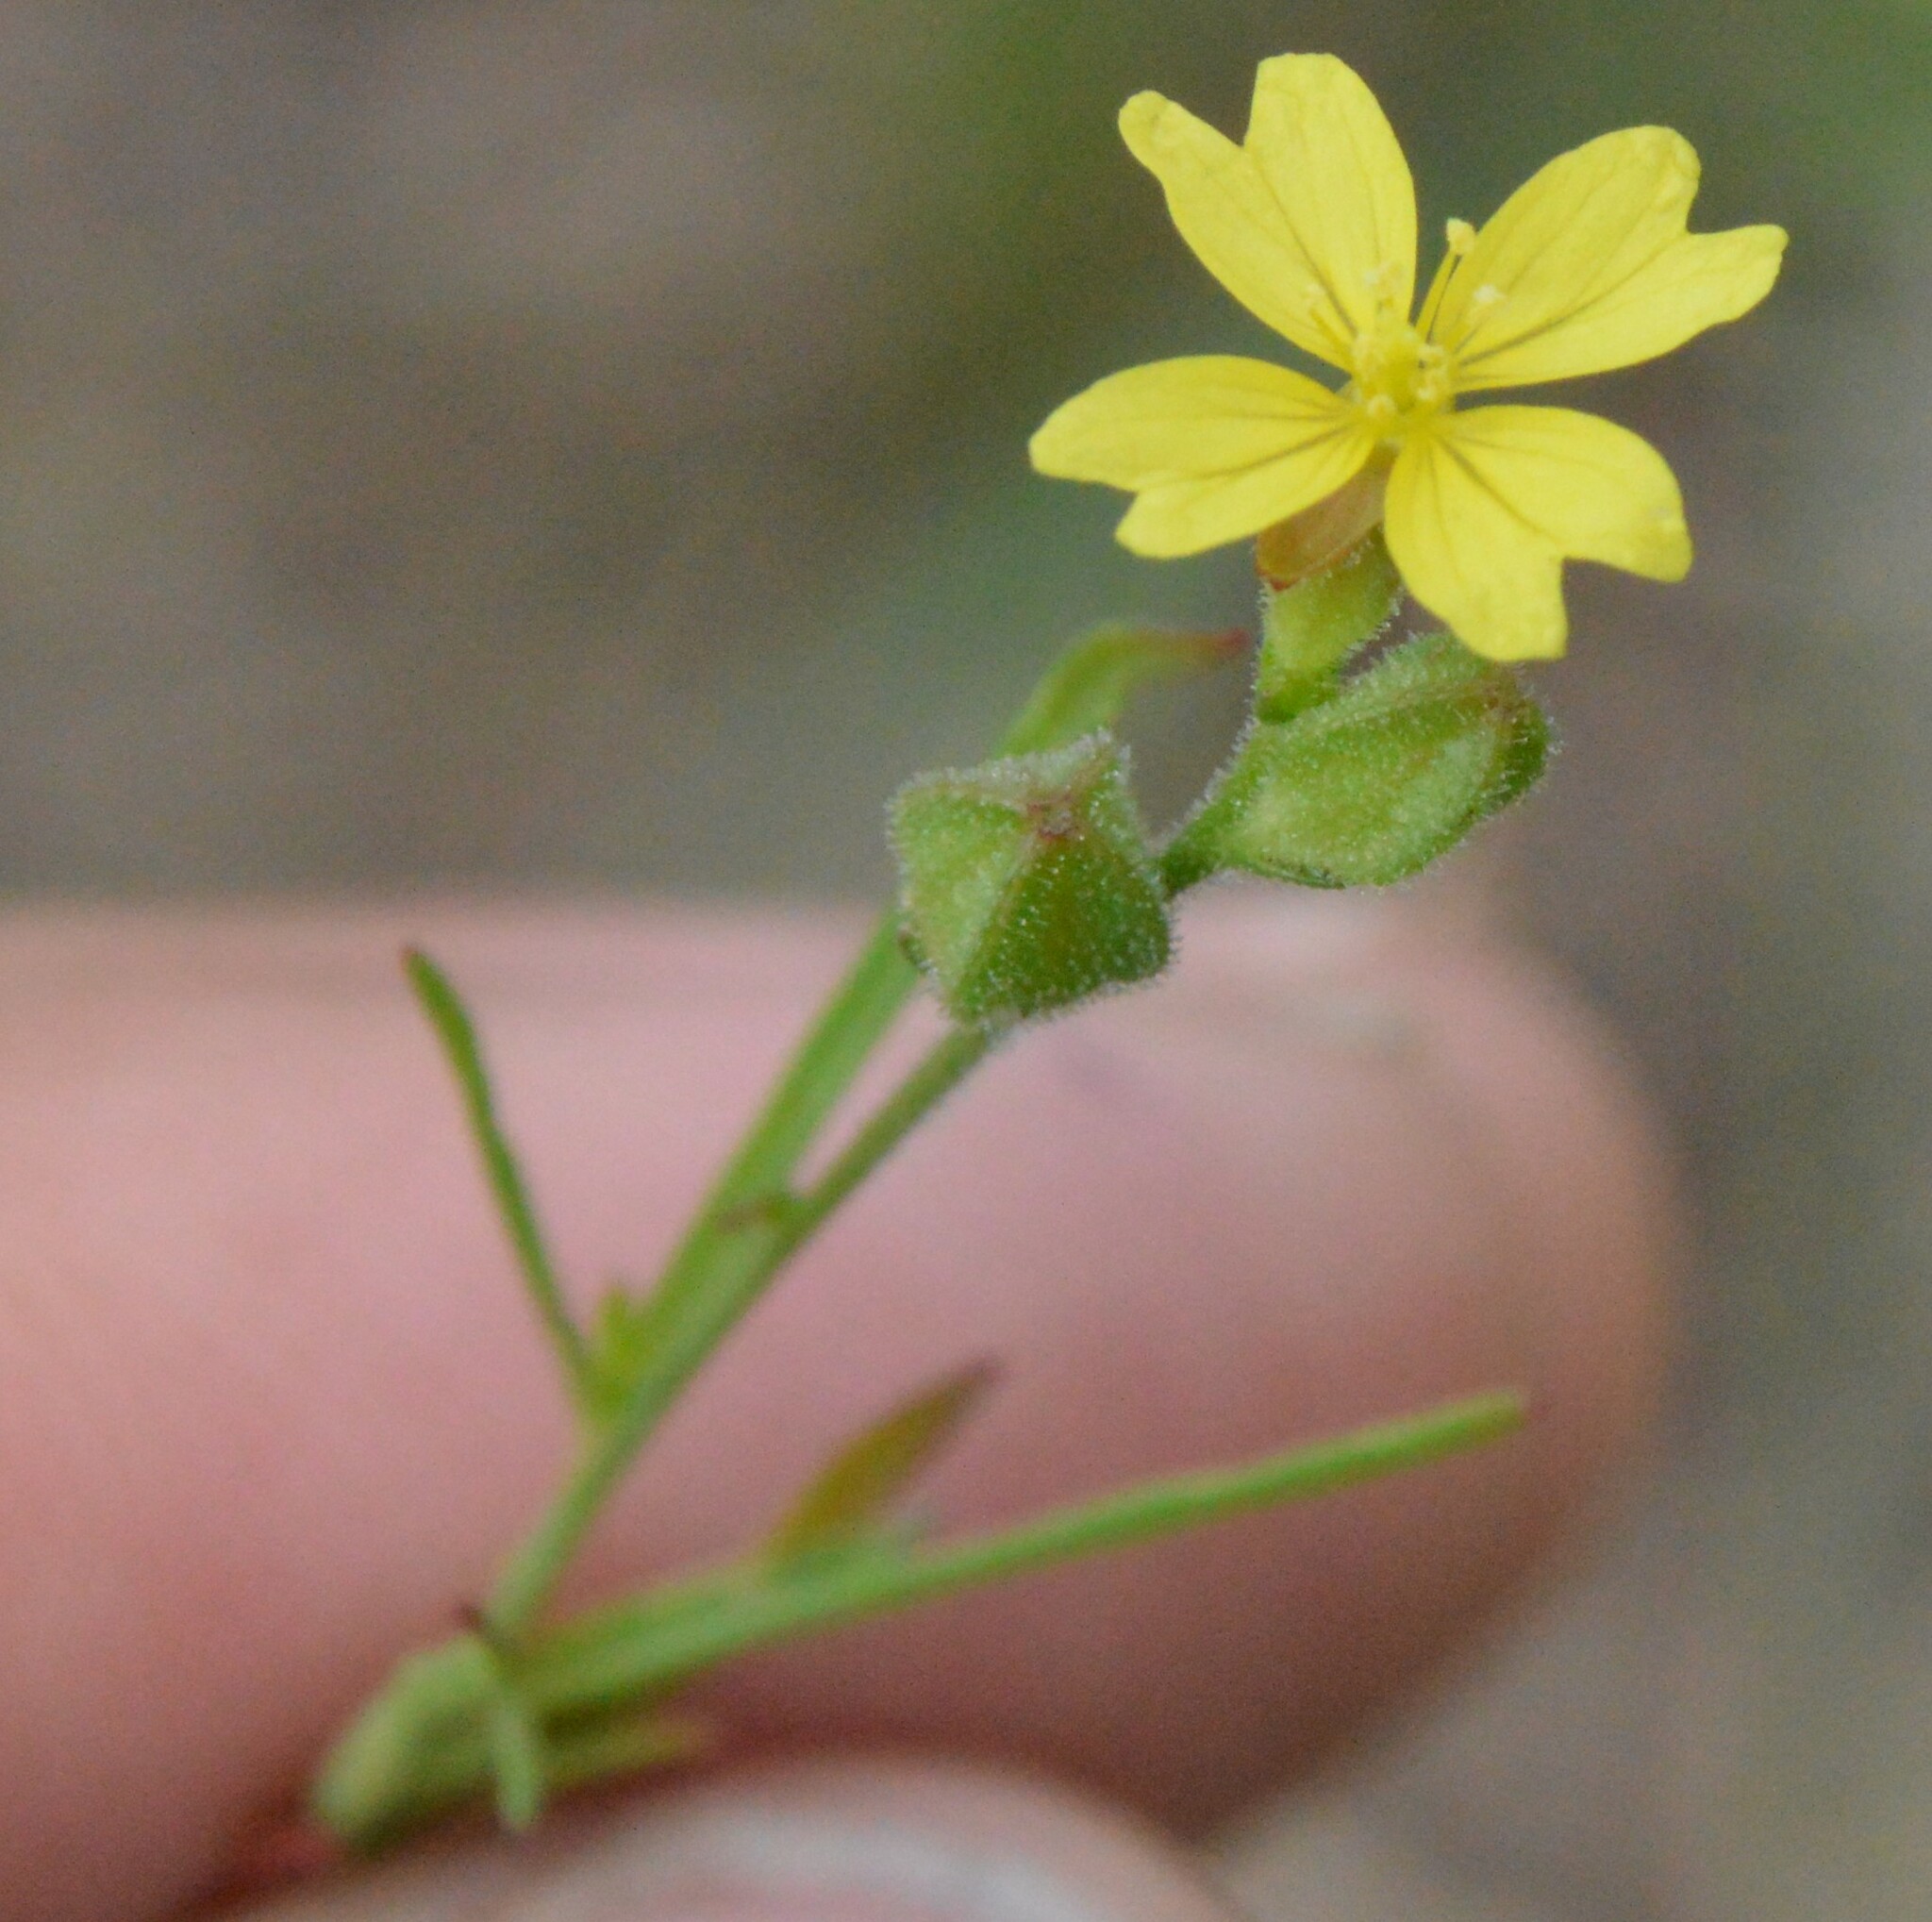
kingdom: Plantae
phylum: Tracheophyta
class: Magnoliopsida
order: Myrtales
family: Onagraceae
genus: Oenothera
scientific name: Oenothera linifolia
